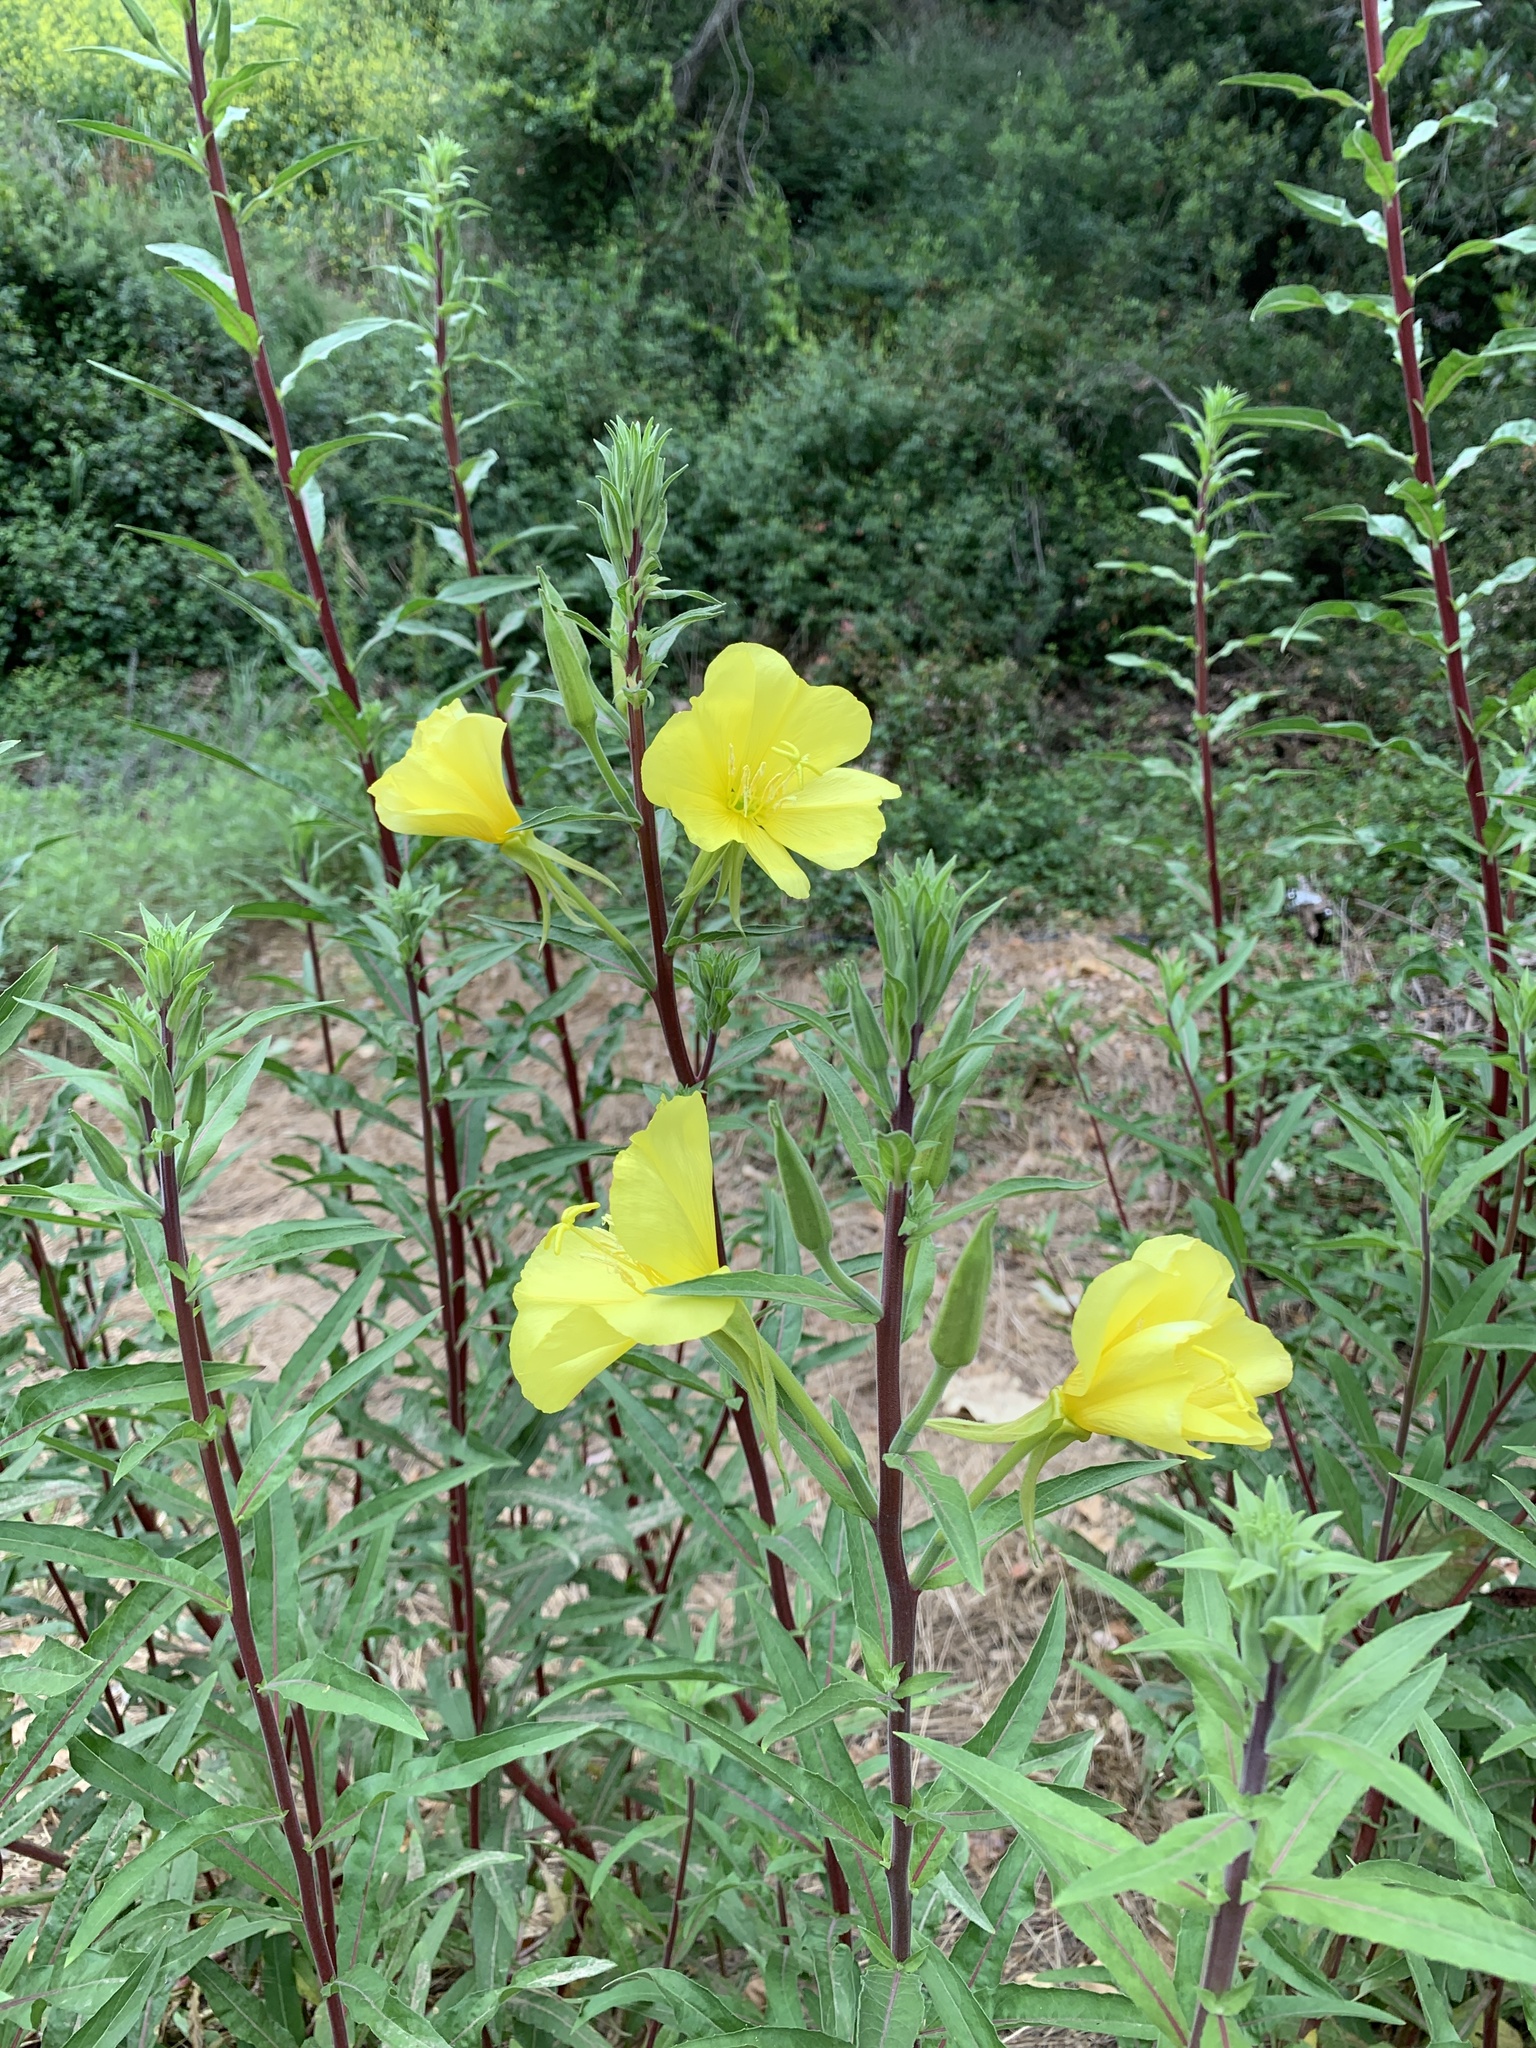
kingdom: Plantae
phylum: Tracheophyta
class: Magnoliopsida
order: Myrtales
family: Onagraceae
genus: Oenothera
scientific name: Oenothera elata
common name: Hooker's evening-primrose
